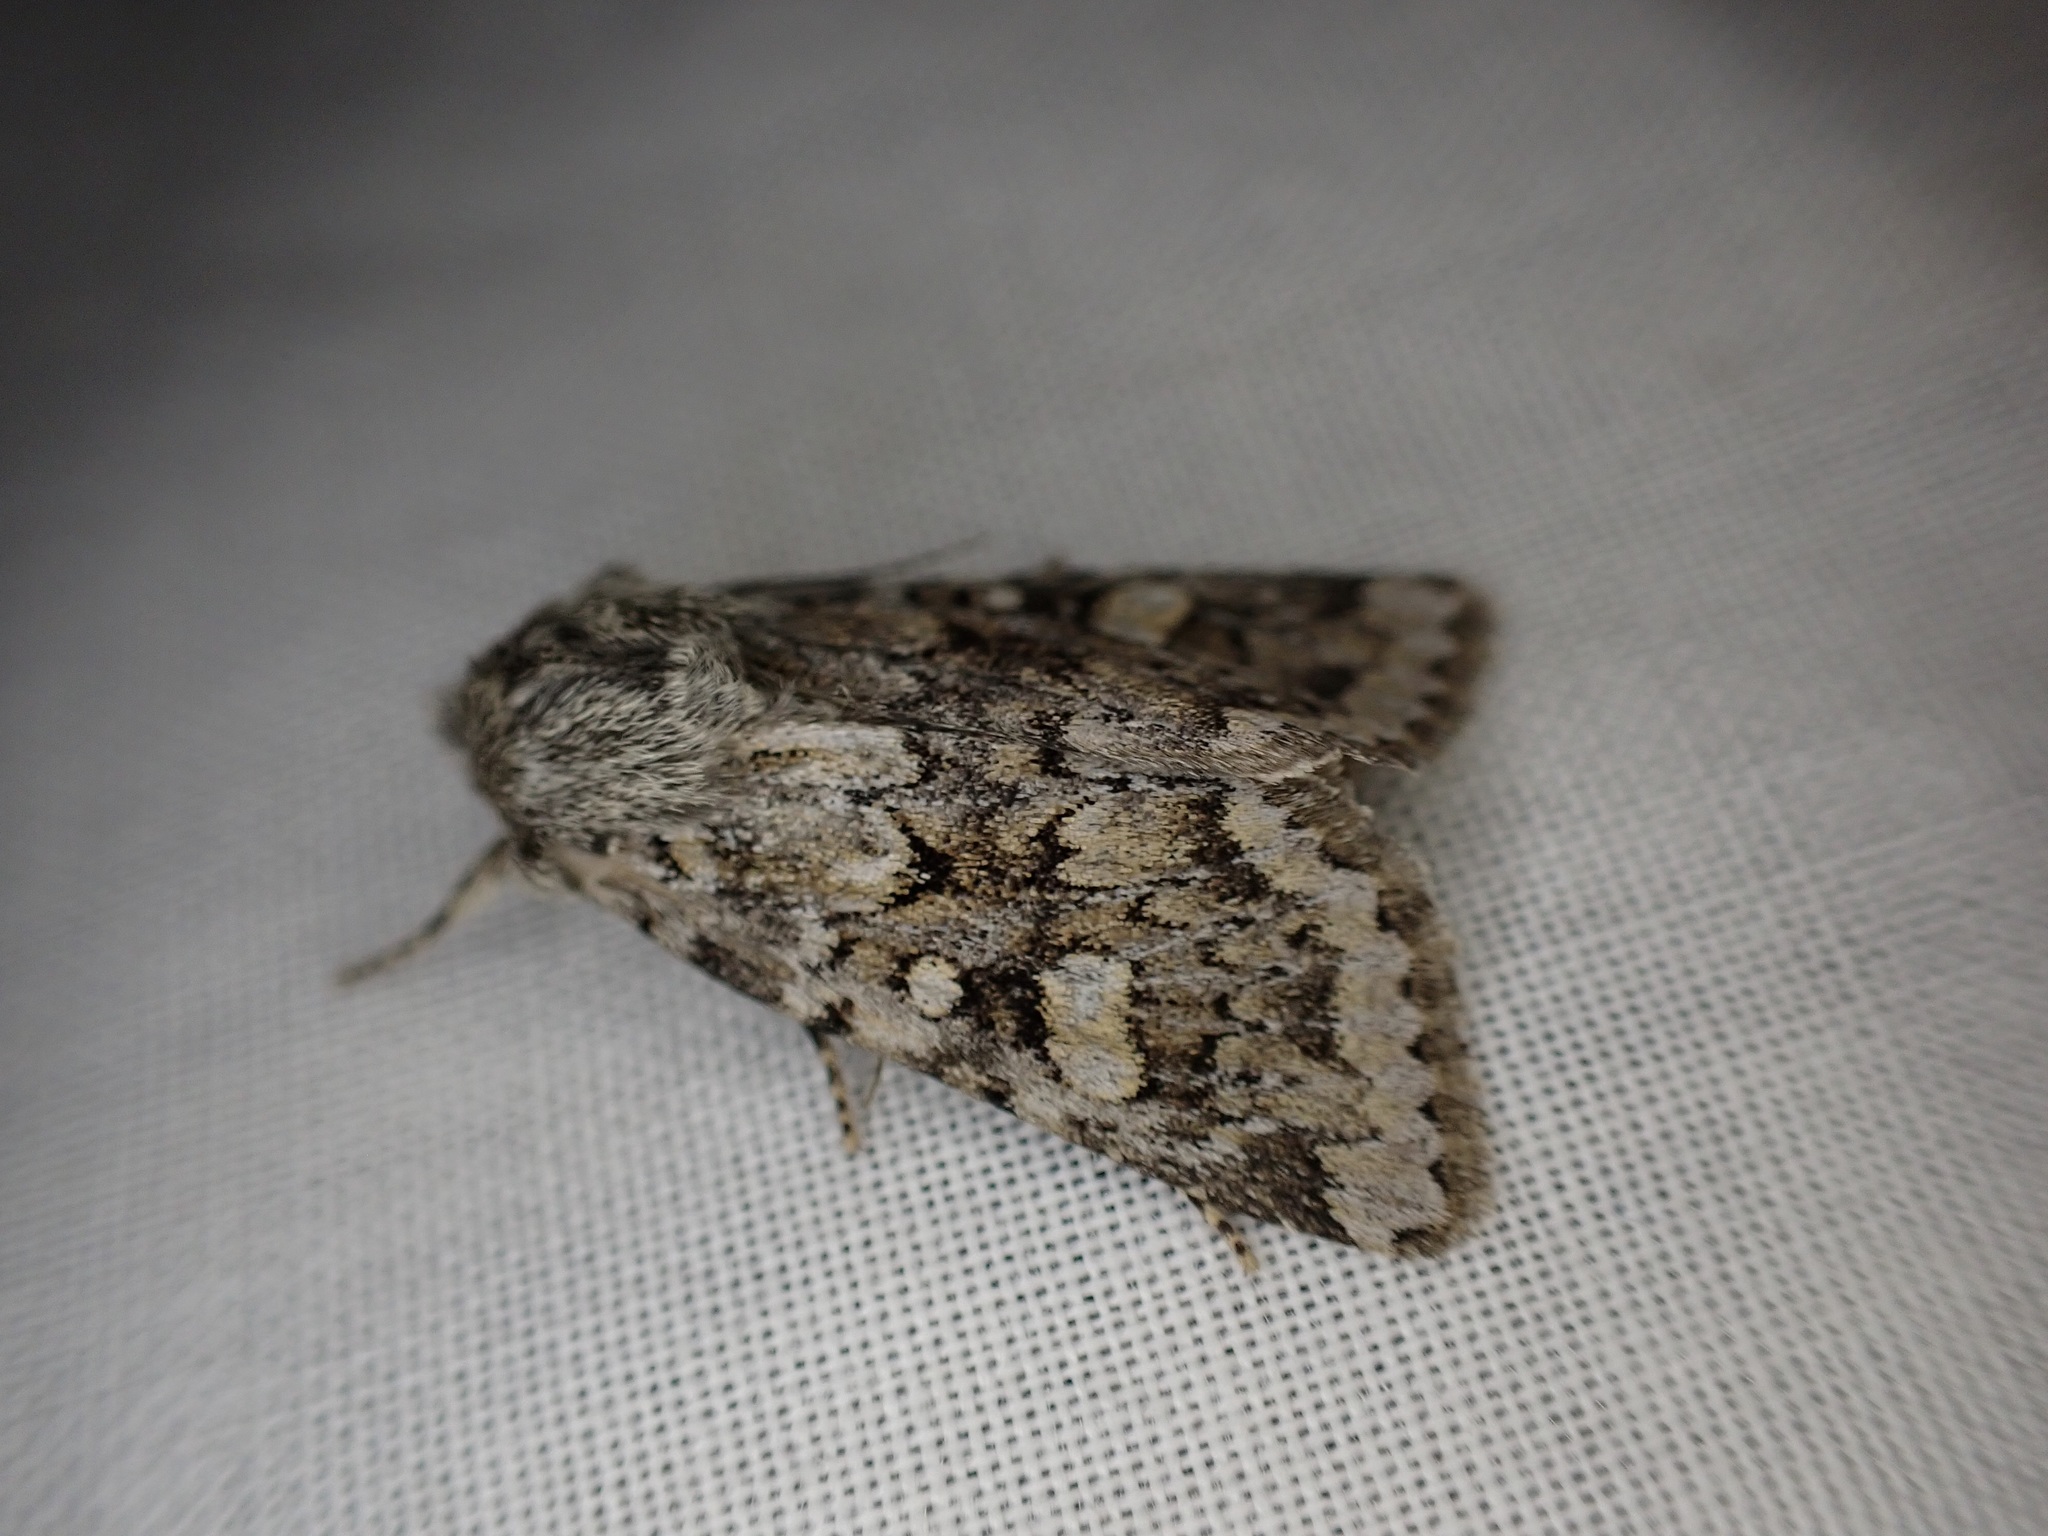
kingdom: Animalia
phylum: Arthropoda
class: Insecta
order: Lepidoptera
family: Noctuidae
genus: Ichneutica
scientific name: Ichneutica
